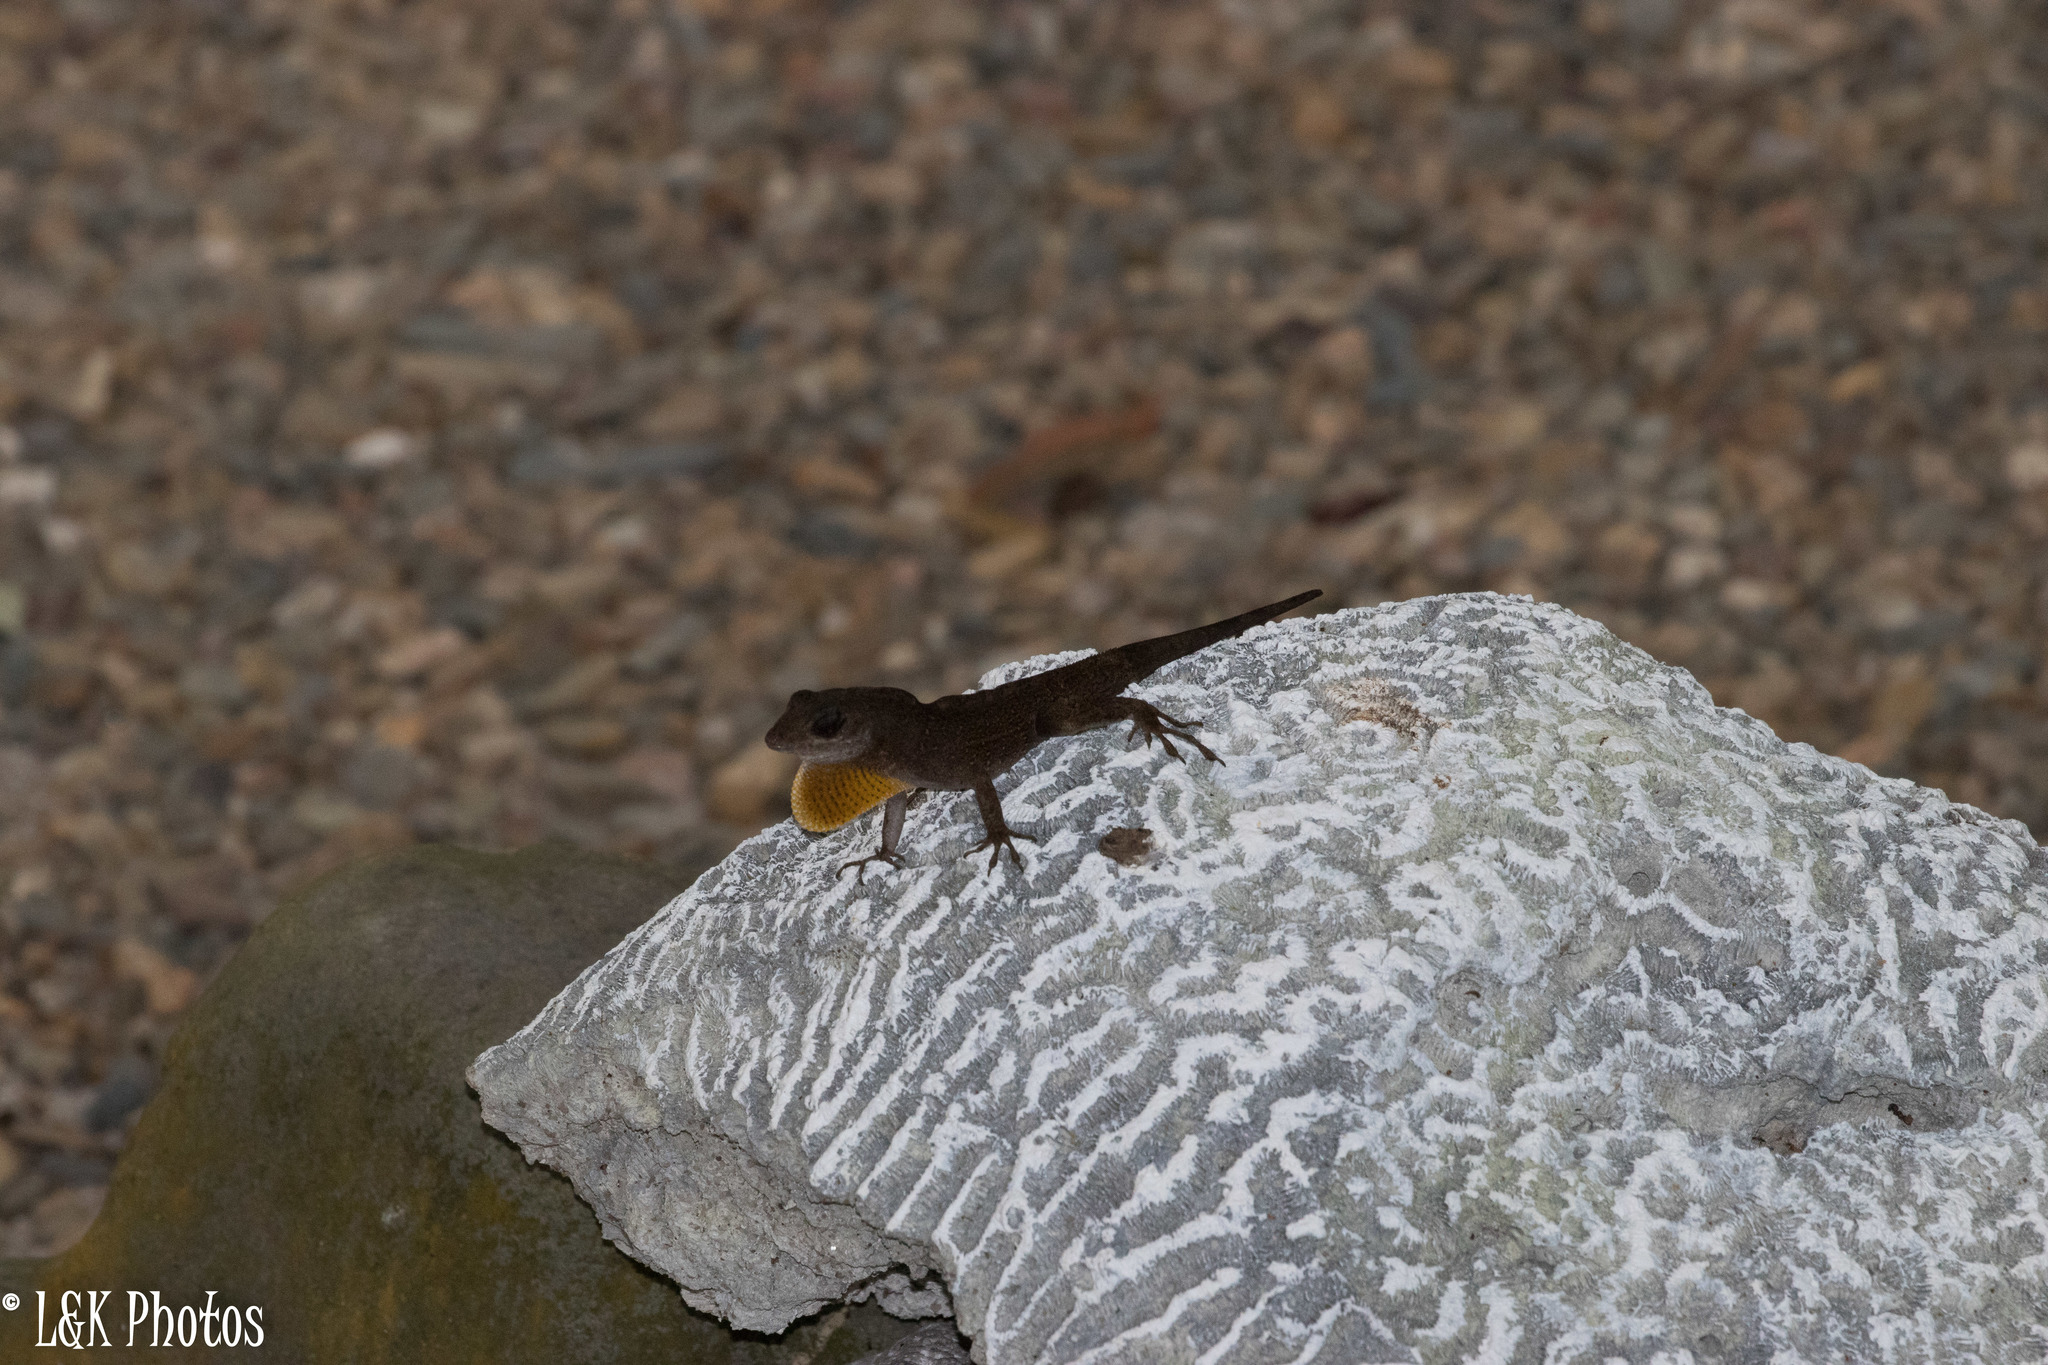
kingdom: Animalia
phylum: Chordata
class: Squamata
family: Dactyloidae
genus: Anolis
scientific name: Anolis sagrei
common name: Brown anole
